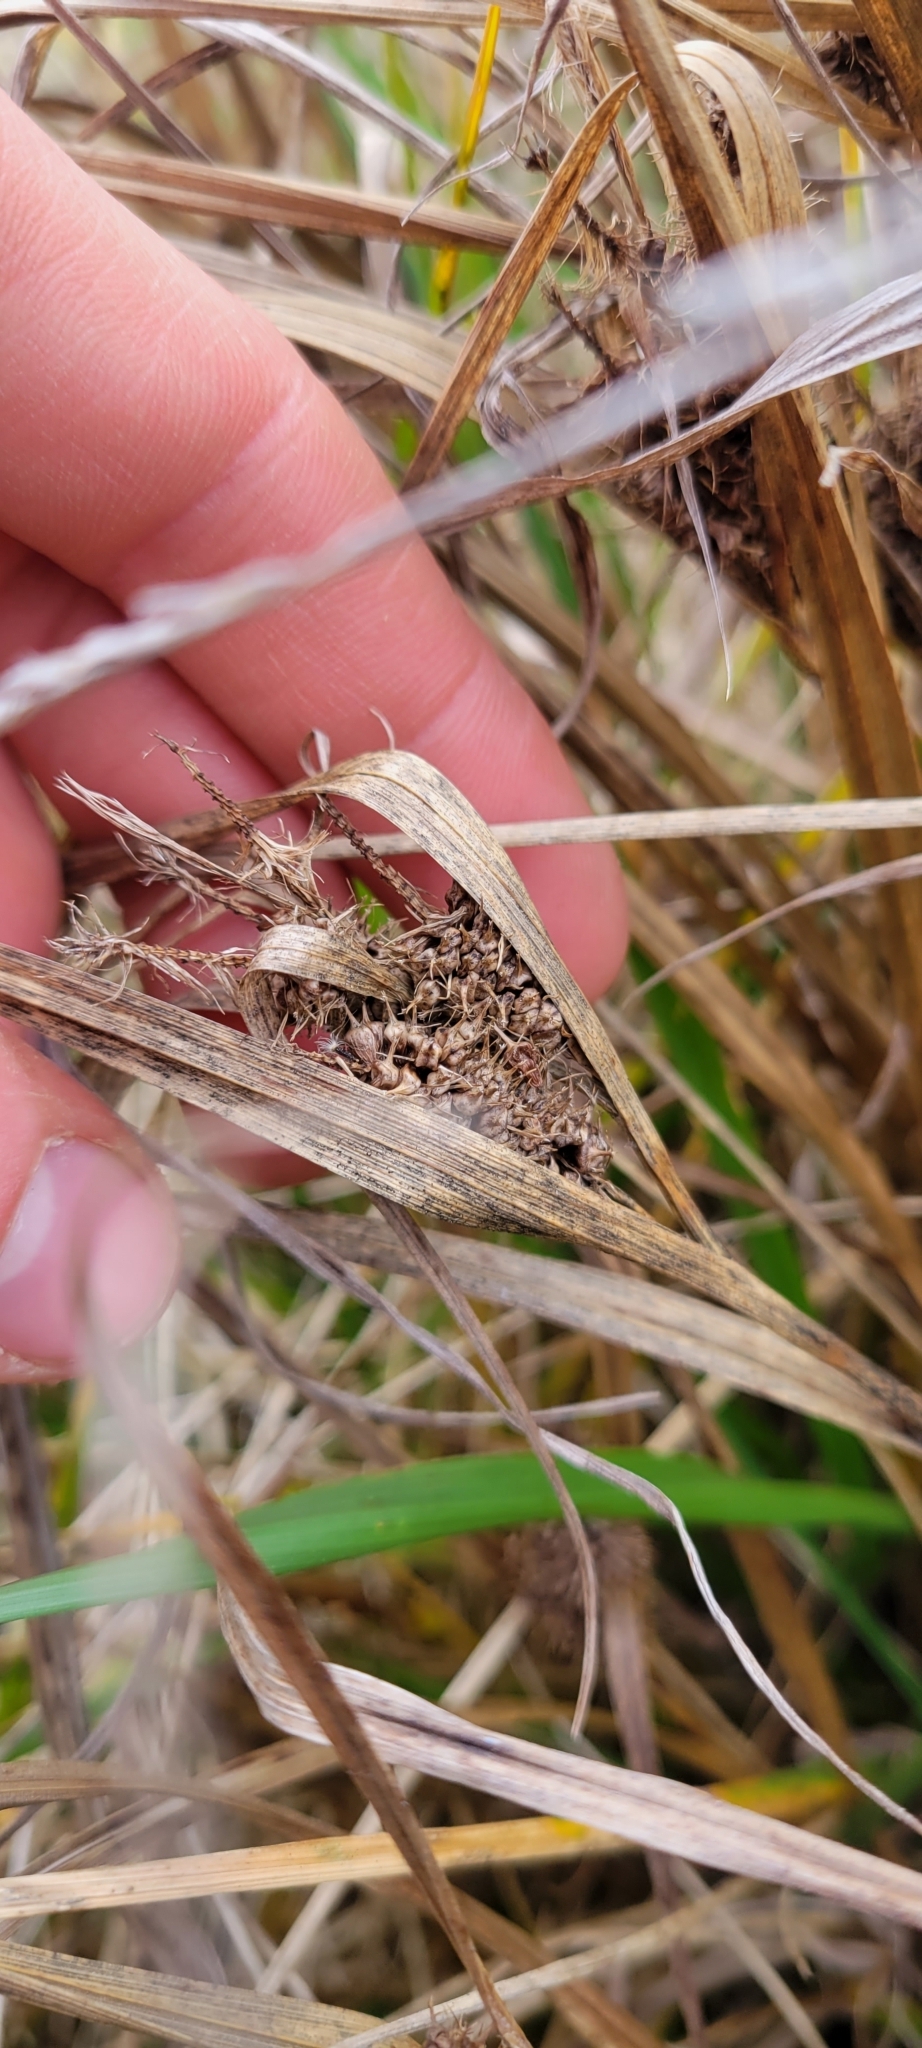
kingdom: Plantae
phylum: Tracheophyta
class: Liliopsida
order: Poales
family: Cyperaceae
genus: Carex
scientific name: Carex frankii
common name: Frank's sedge
